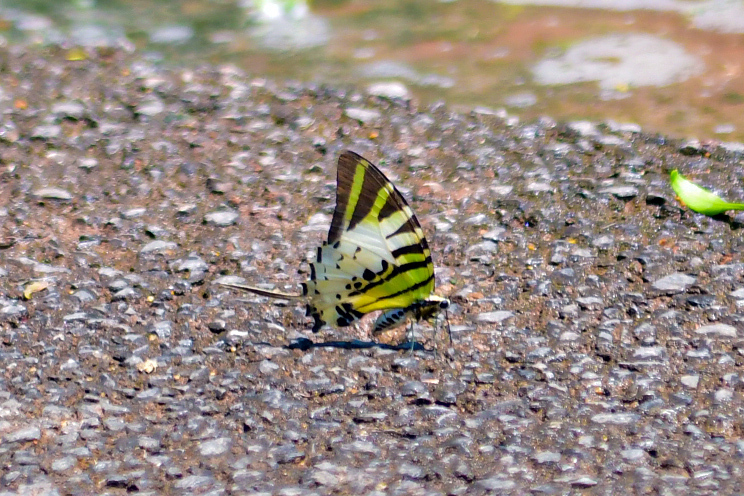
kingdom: Animalia
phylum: Arthropoda
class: Insecta
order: Lepidoptera
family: Papilionidae
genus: Graphium
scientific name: Graphium antiphates
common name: Fivebar swordtail
